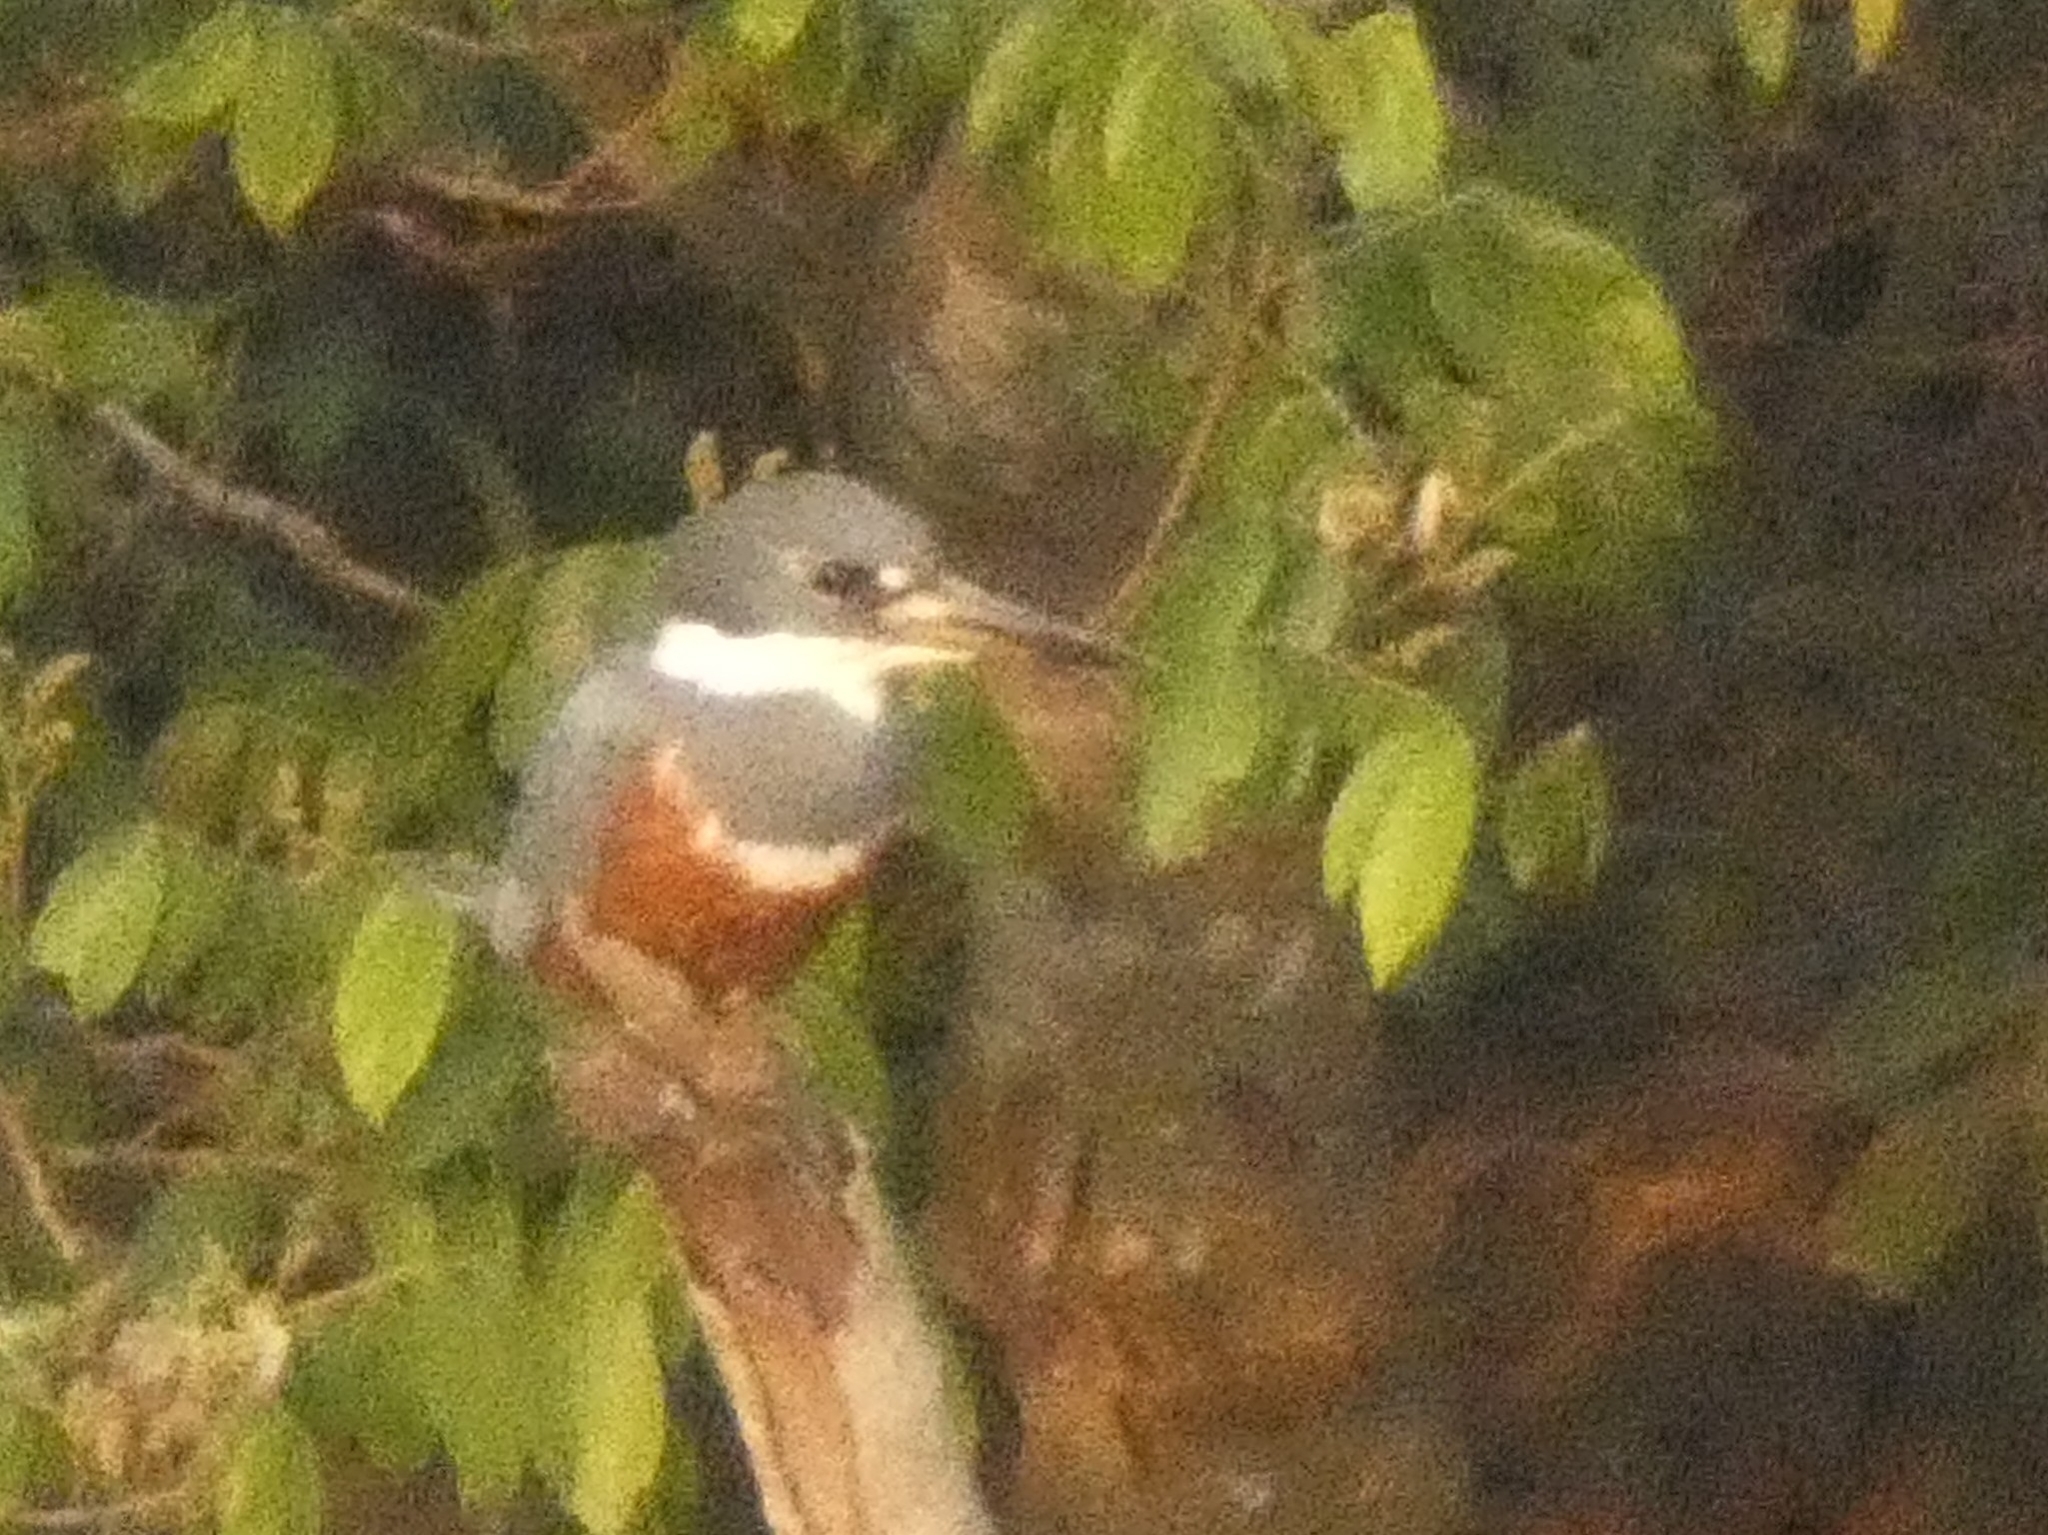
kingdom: Animalia
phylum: Chordata
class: Aves
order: Coraciiformes
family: Alcedinidae
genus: Megaceryle
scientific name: Megaceryle torquata
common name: Ringed kingfisher
